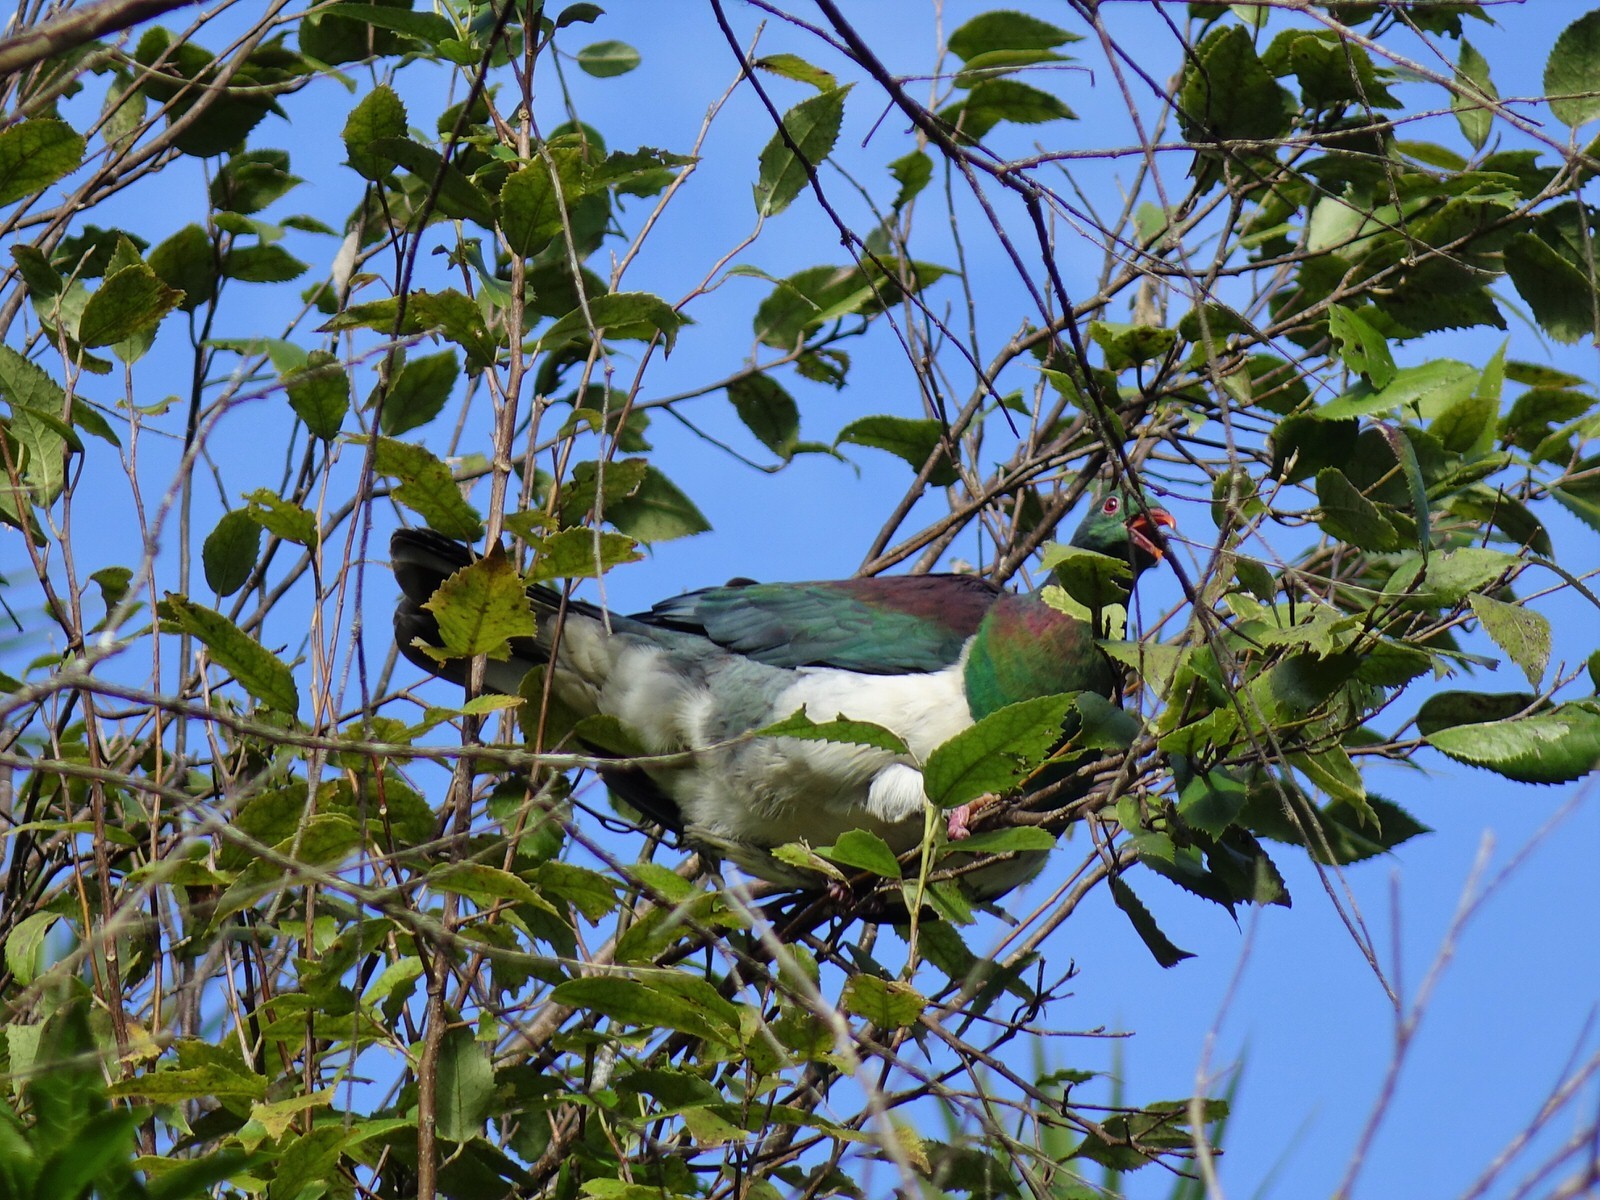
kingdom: Animalia
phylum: Chordata
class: Aves
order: Columbiformes
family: Columbidae
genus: Hemiphaga
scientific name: Hemiphaga novaeseelandiae
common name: New zealand pigeon
